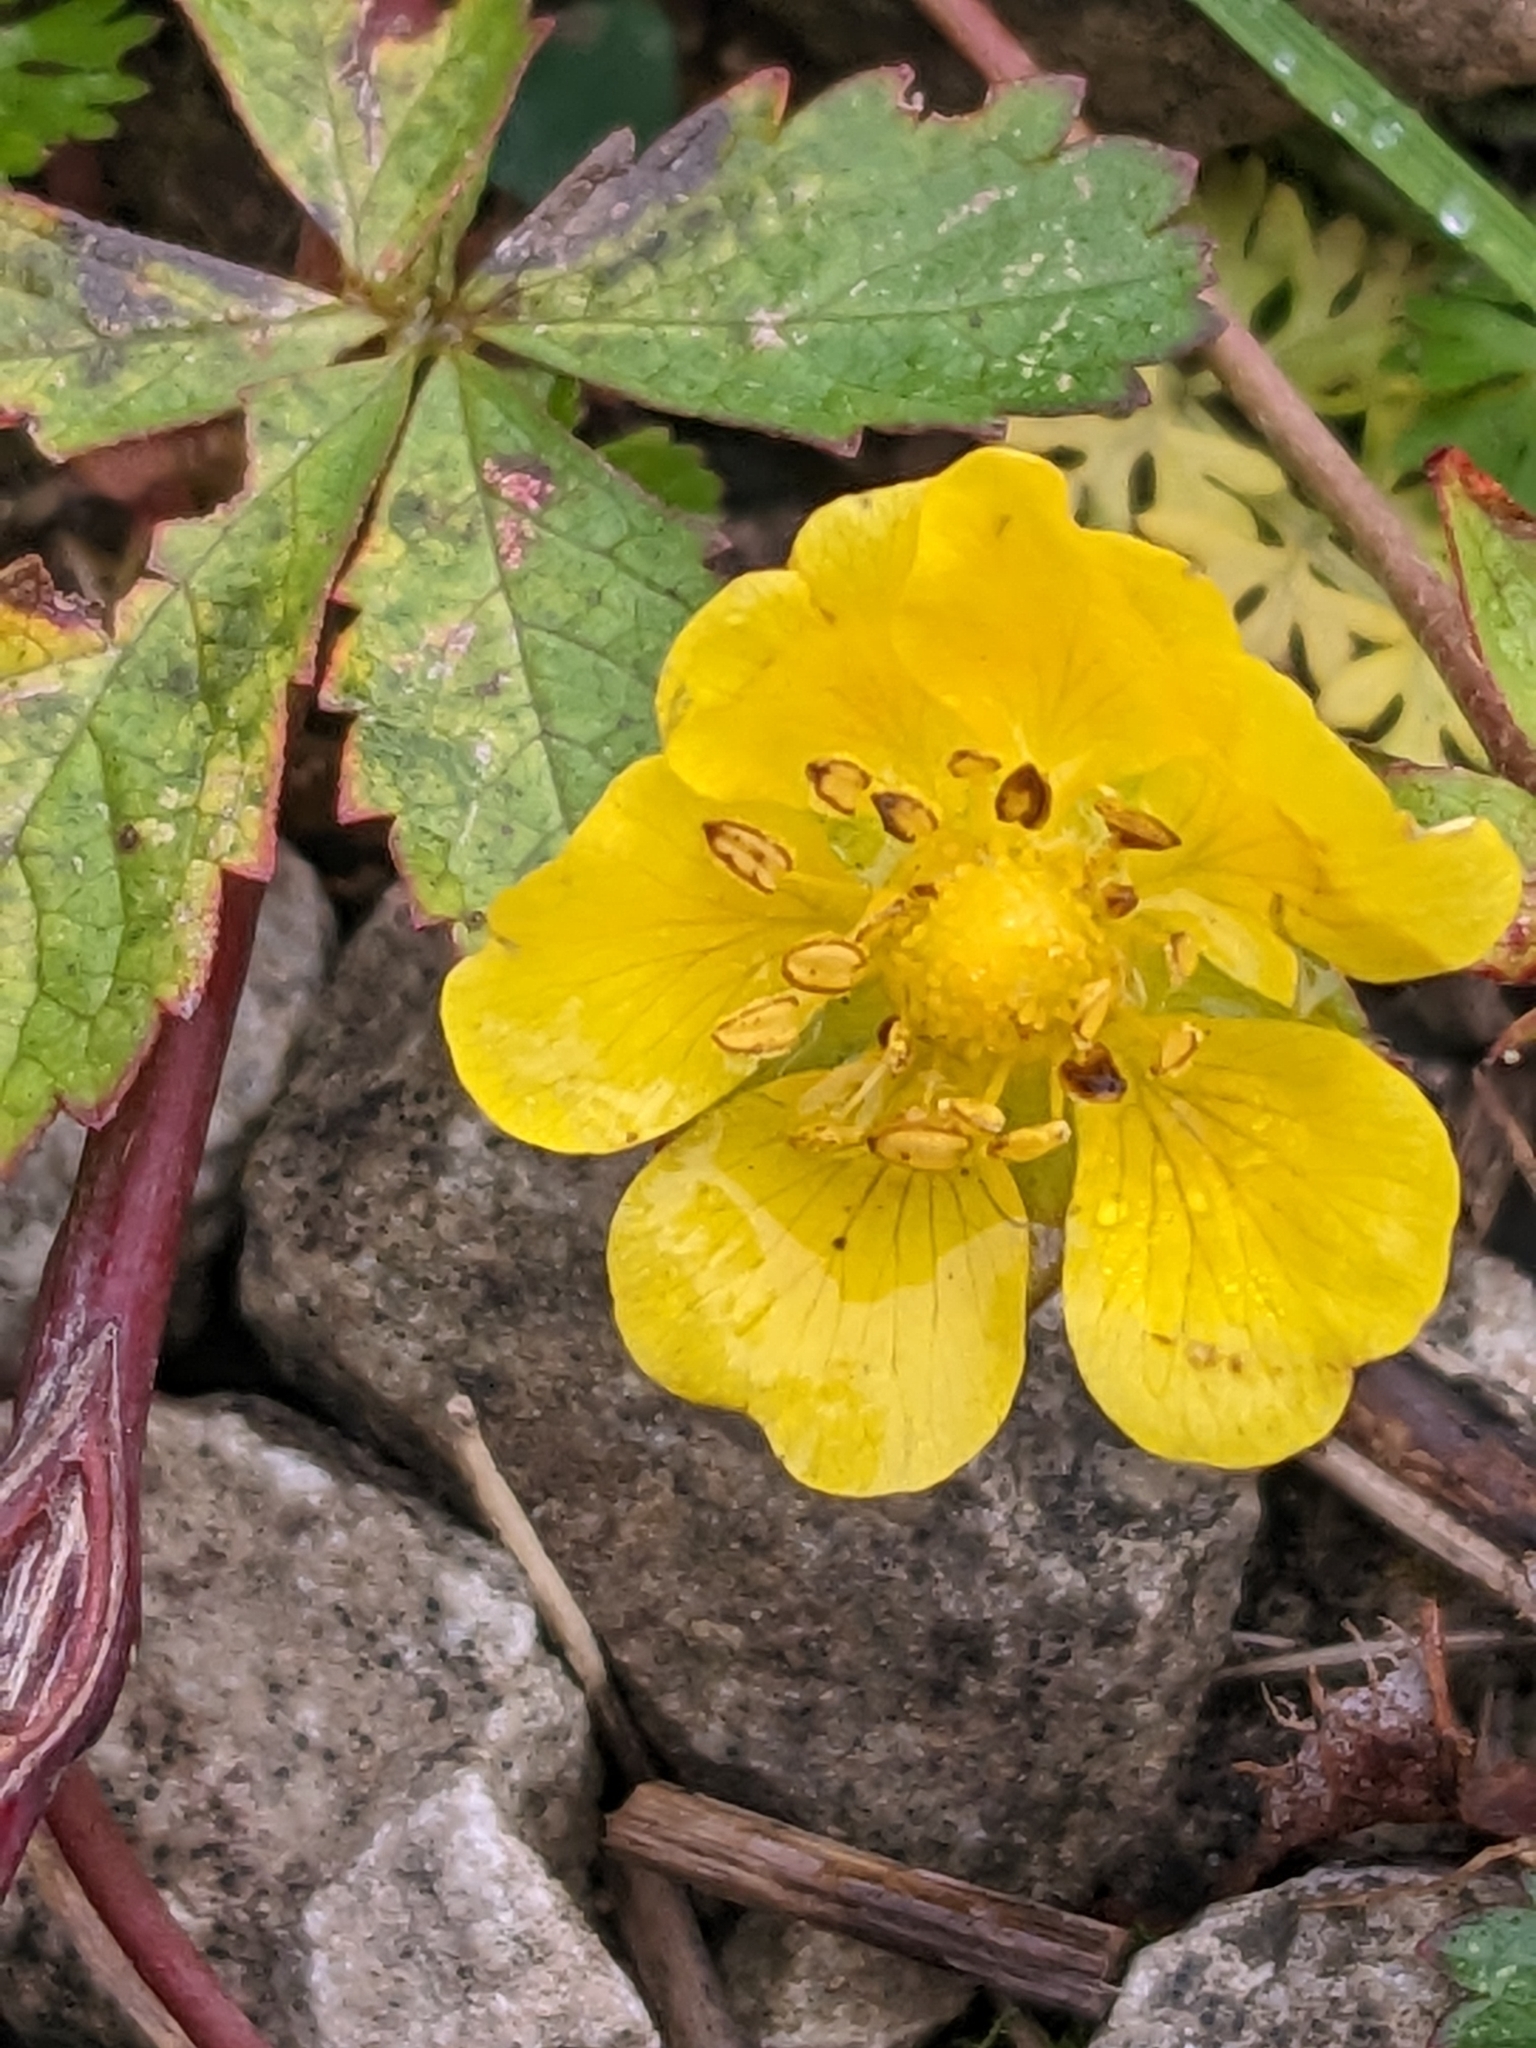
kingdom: Plantae
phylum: Tracheophyta
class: Magnoliopsida
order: Rosales
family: Rosaceae
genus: Potentilla
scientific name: Potentilla reptans
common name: Creeping cinquefoil
